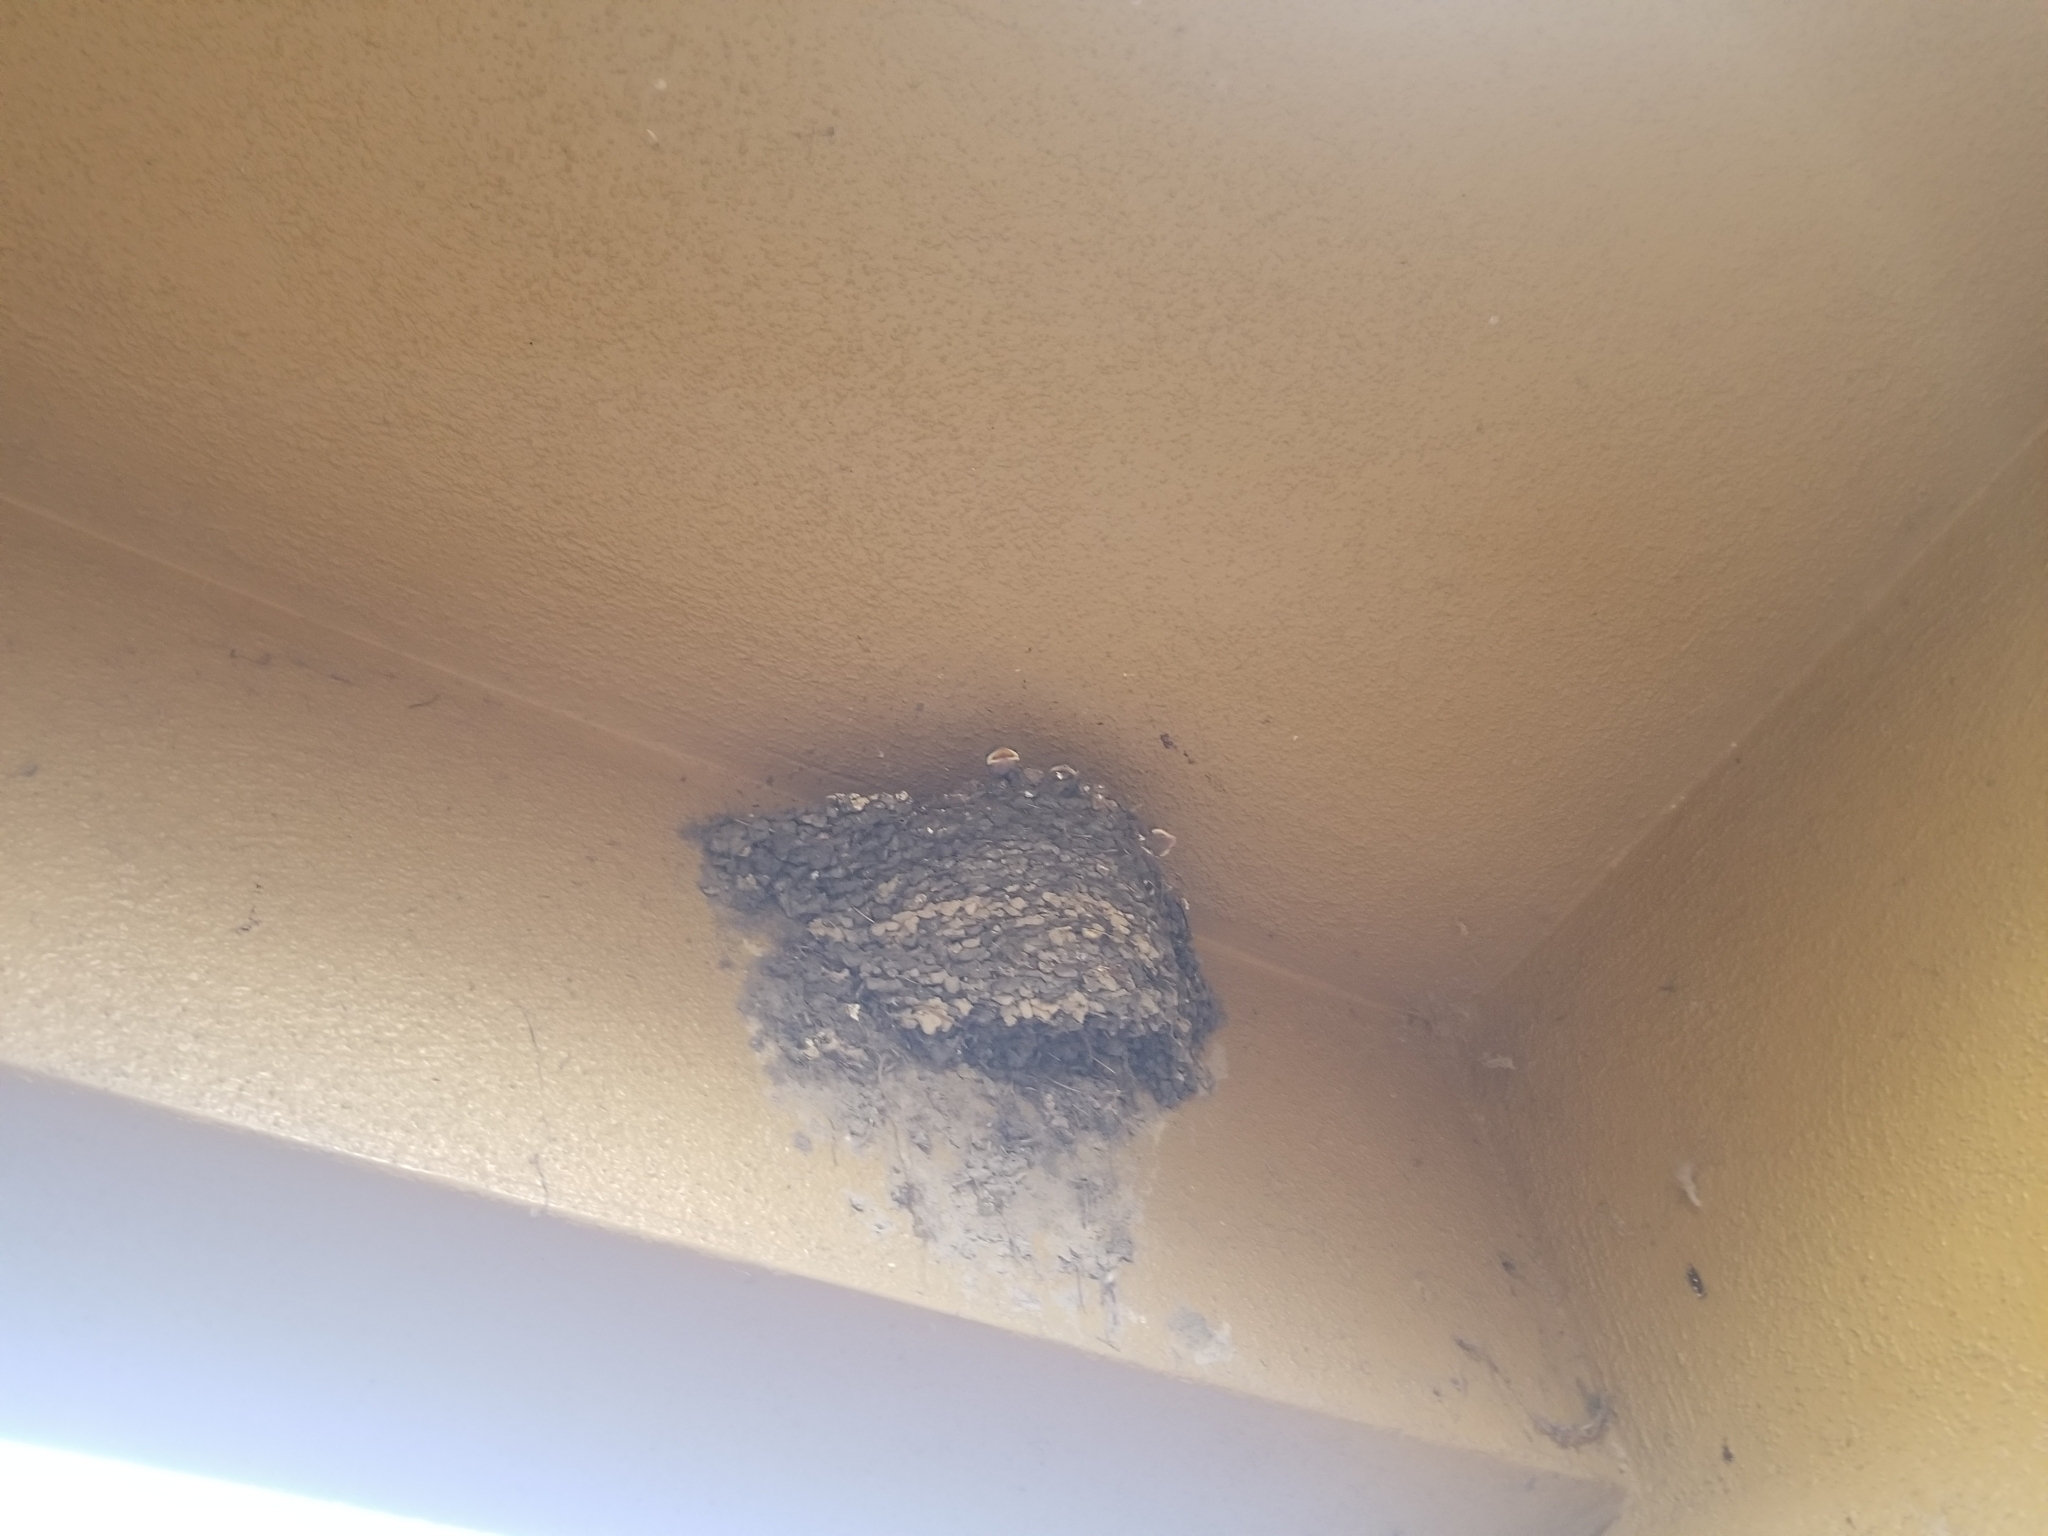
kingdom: Animalia
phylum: Chordata
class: Aves
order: Passeriformes
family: Hirundinidae
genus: Hirundo
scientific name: Hirundo rustica
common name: Barn swallow
